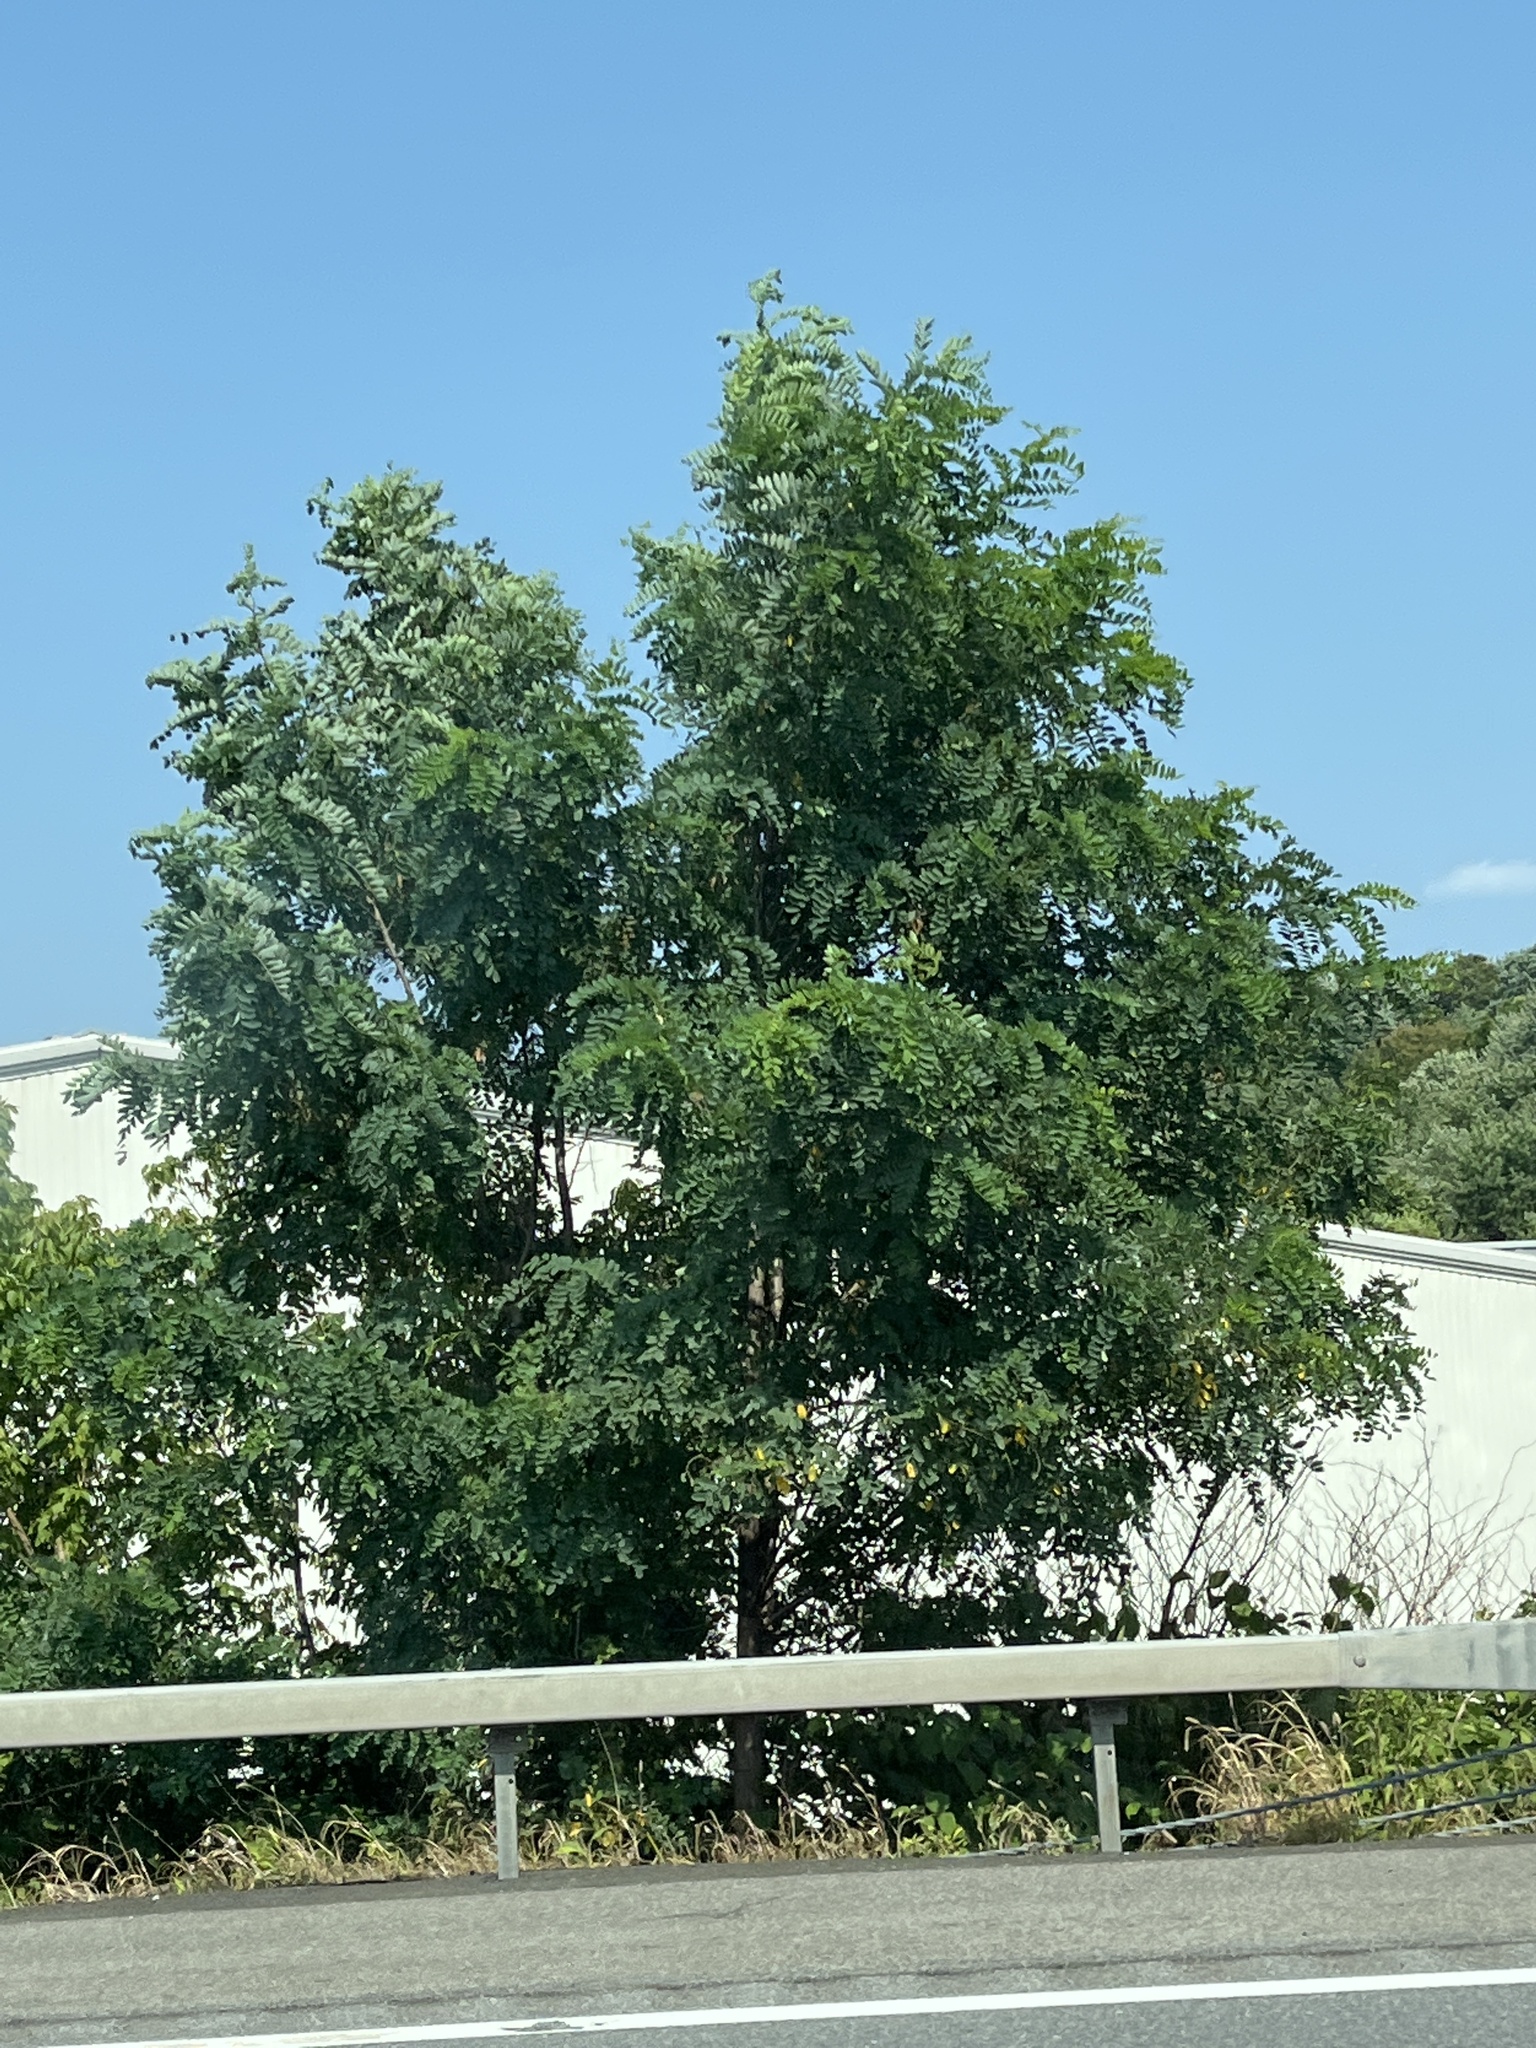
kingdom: Plantae
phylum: Tracheophyta
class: Magnoliopsida
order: Fabales
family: Fabaceae
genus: Robinia
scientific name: Robinia pseudoacacia
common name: Black locust
